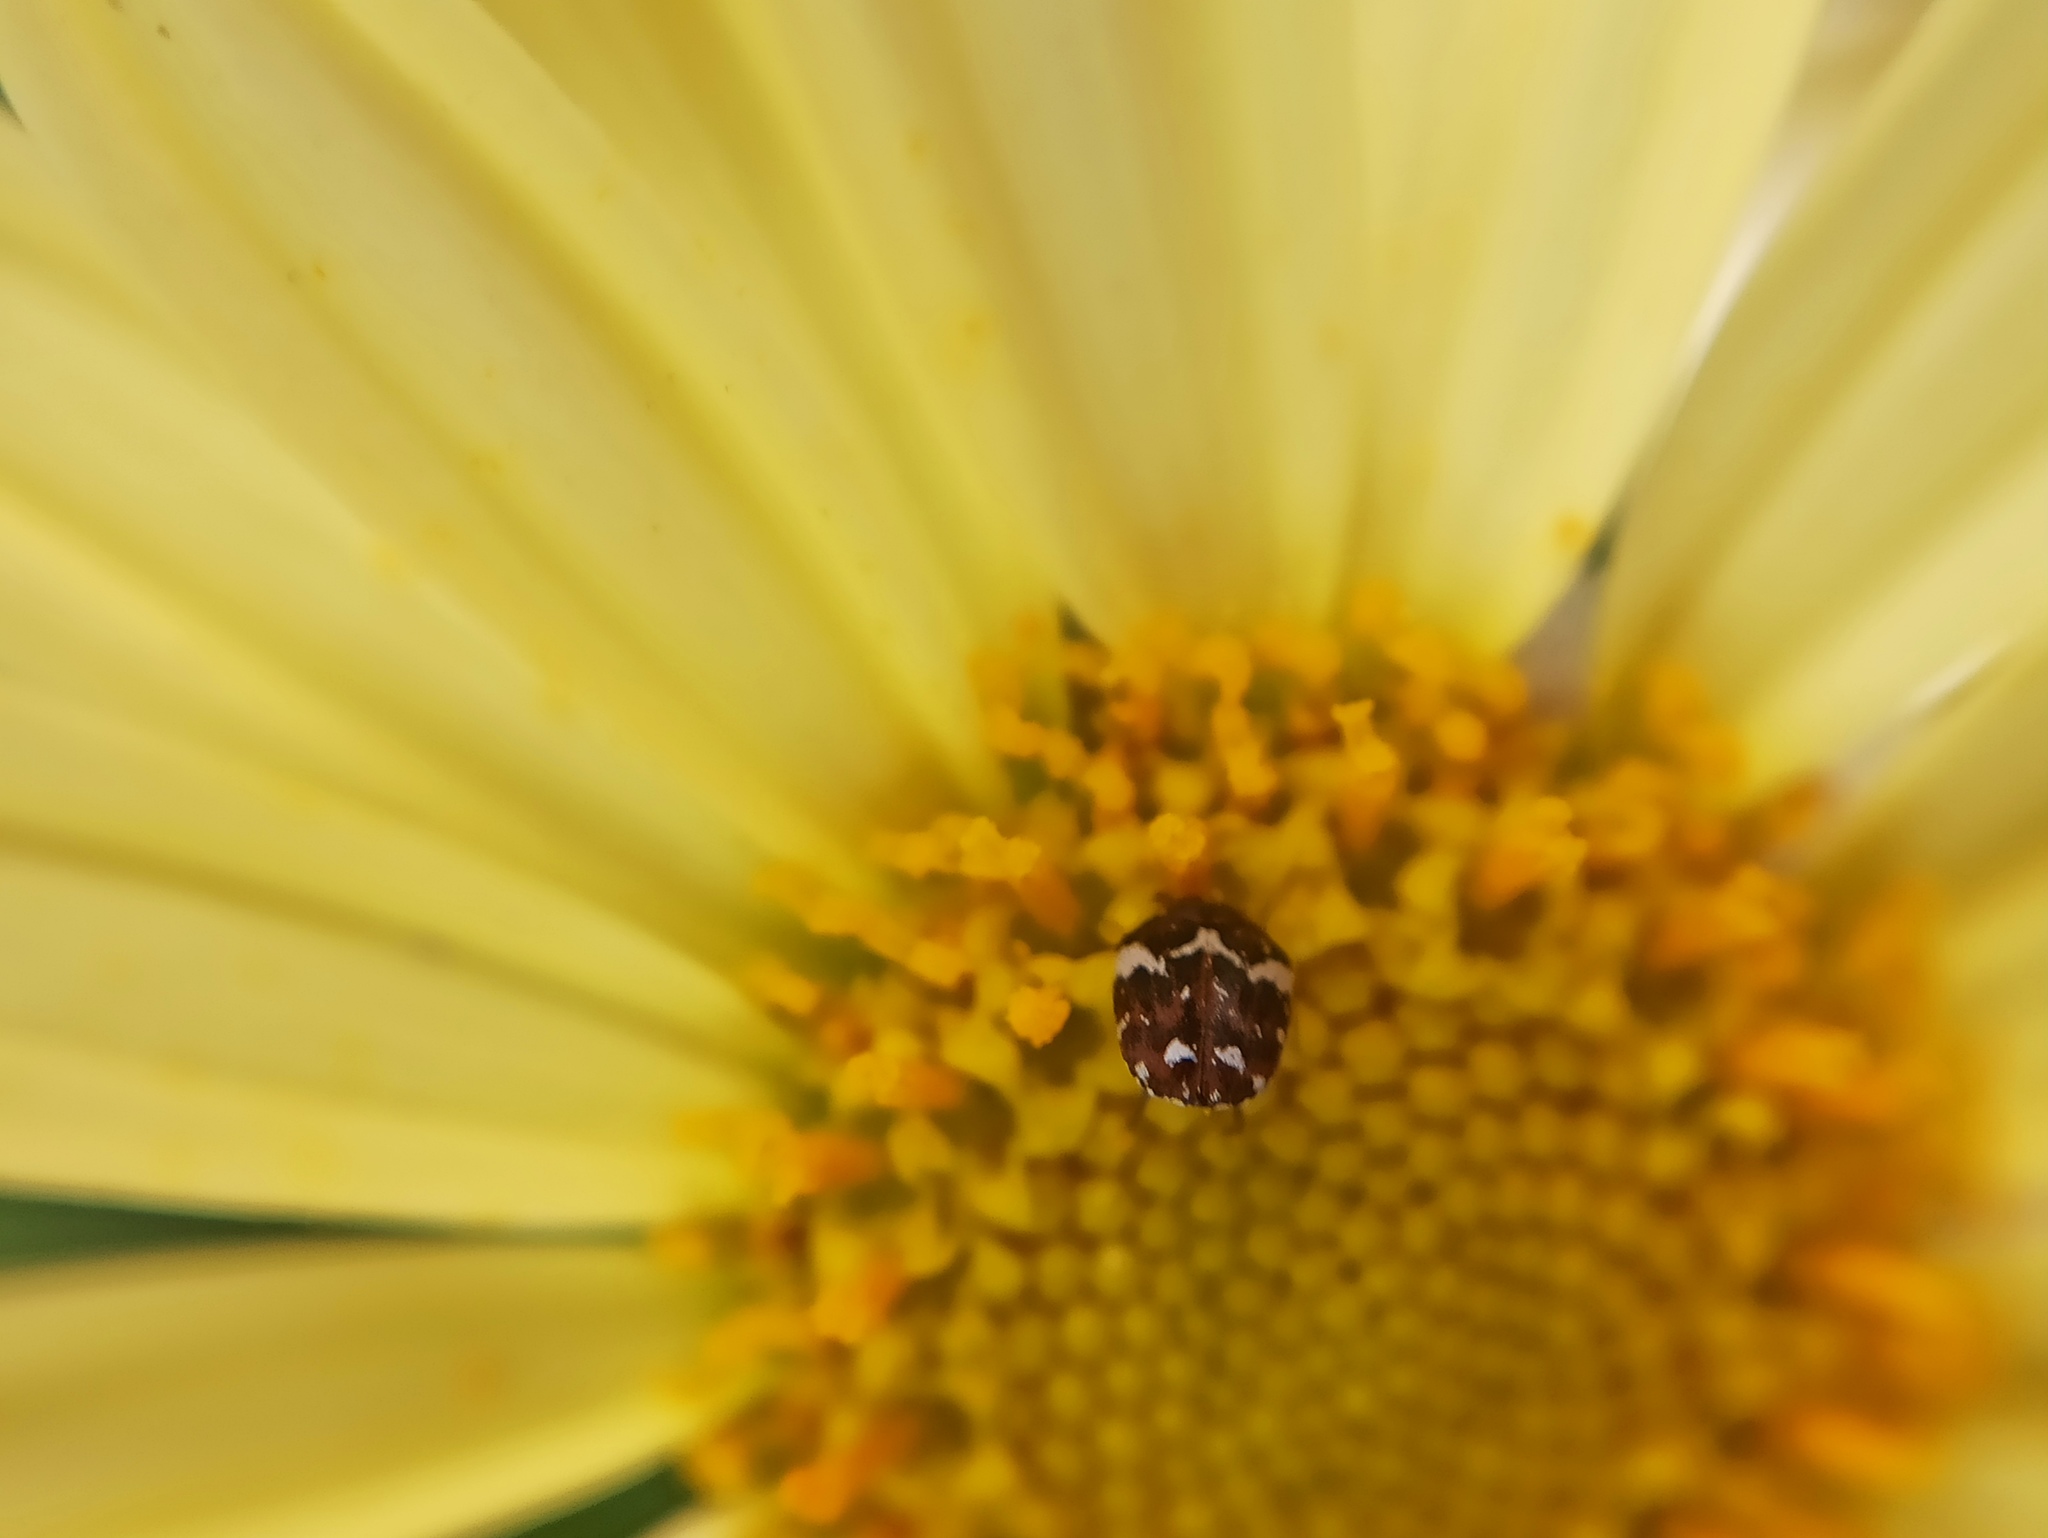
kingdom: Animalia
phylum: Arthropoda
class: Insecta
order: Coleoptera
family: Dermestidae
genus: Anthrenus
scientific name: Anthrenus angustefasciatus
